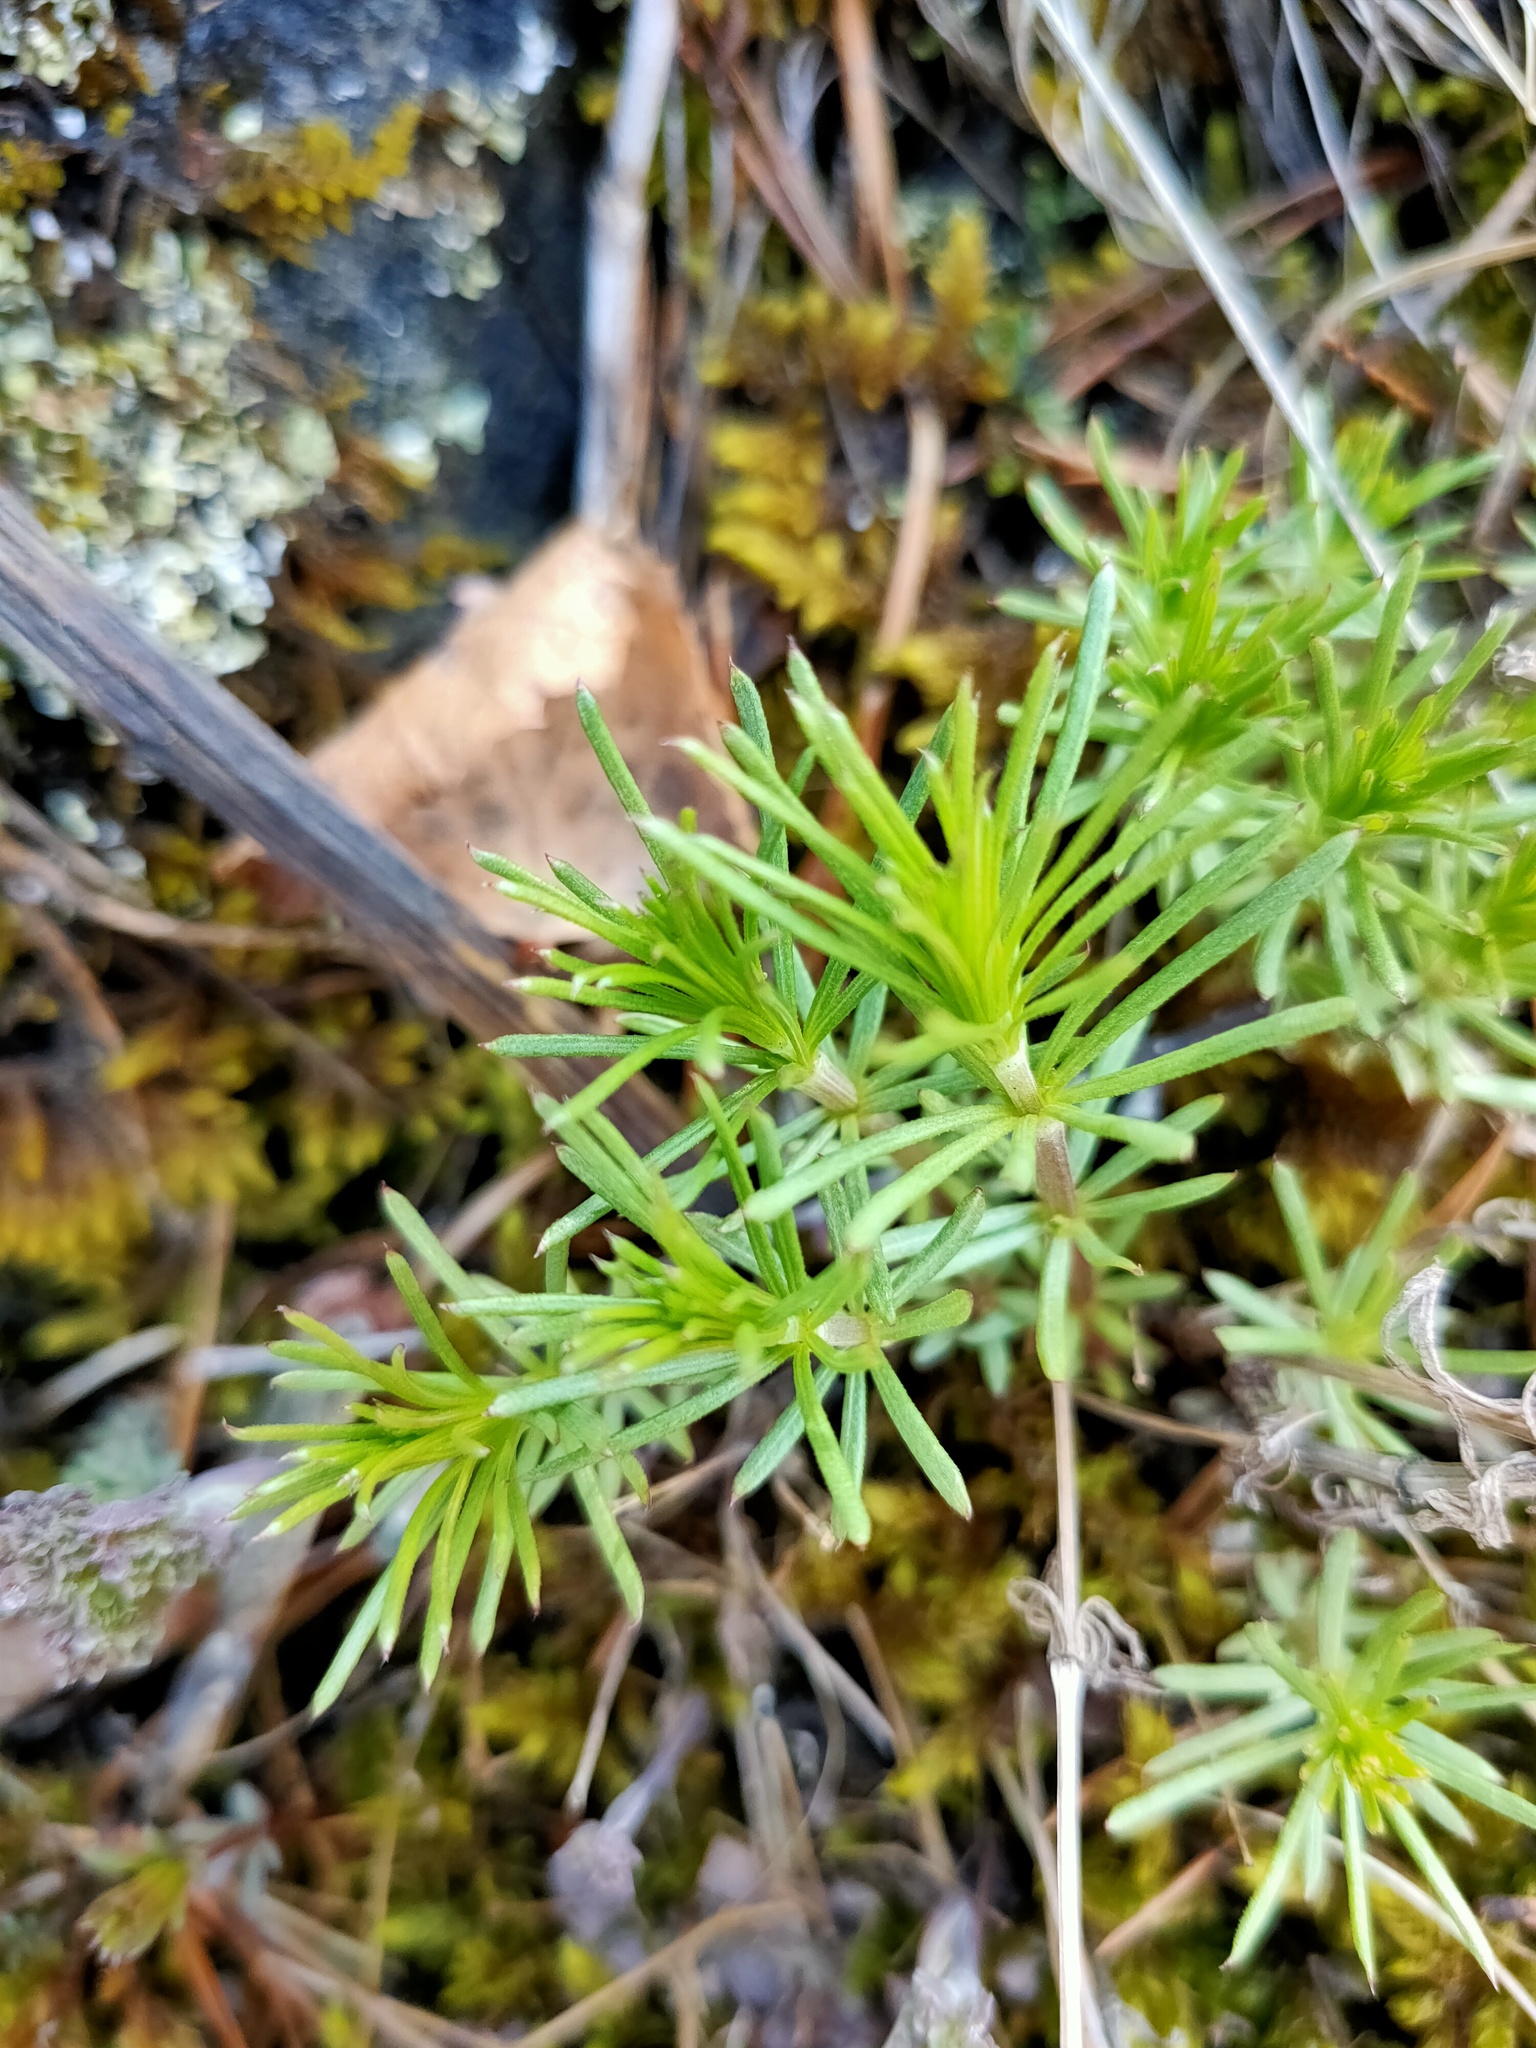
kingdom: Plantae
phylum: Tracheophyta
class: Magnoliopsida
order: Gentianales
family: Rubiaceae
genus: Galium
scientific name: Galium verum
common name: Lady's bedstraw
